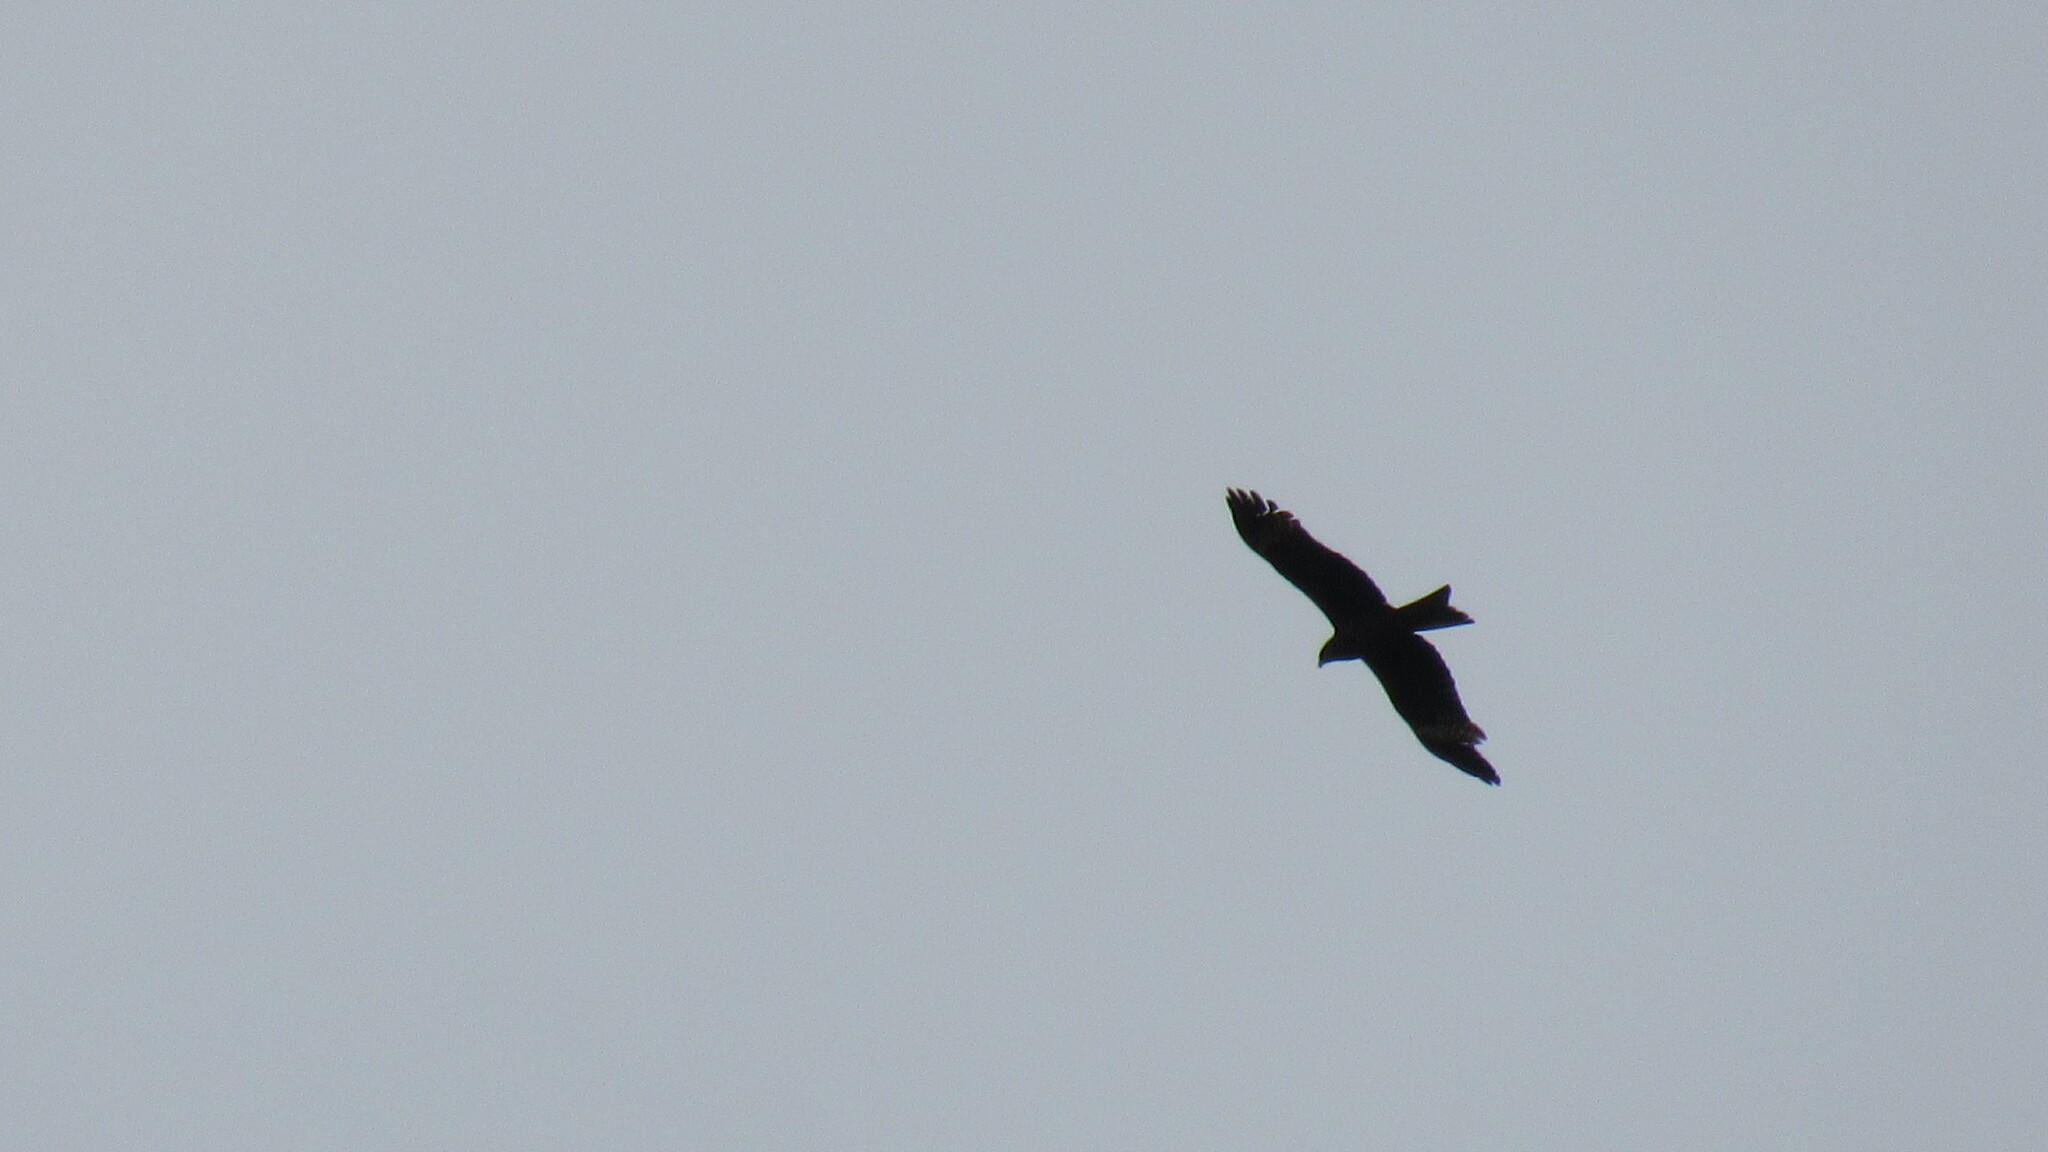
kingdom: Animalia
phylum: Chordata
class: Aves
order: Accipitriformes
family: Accipitridae
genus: Milvus
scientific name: Milvus migrans
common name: Black kite
